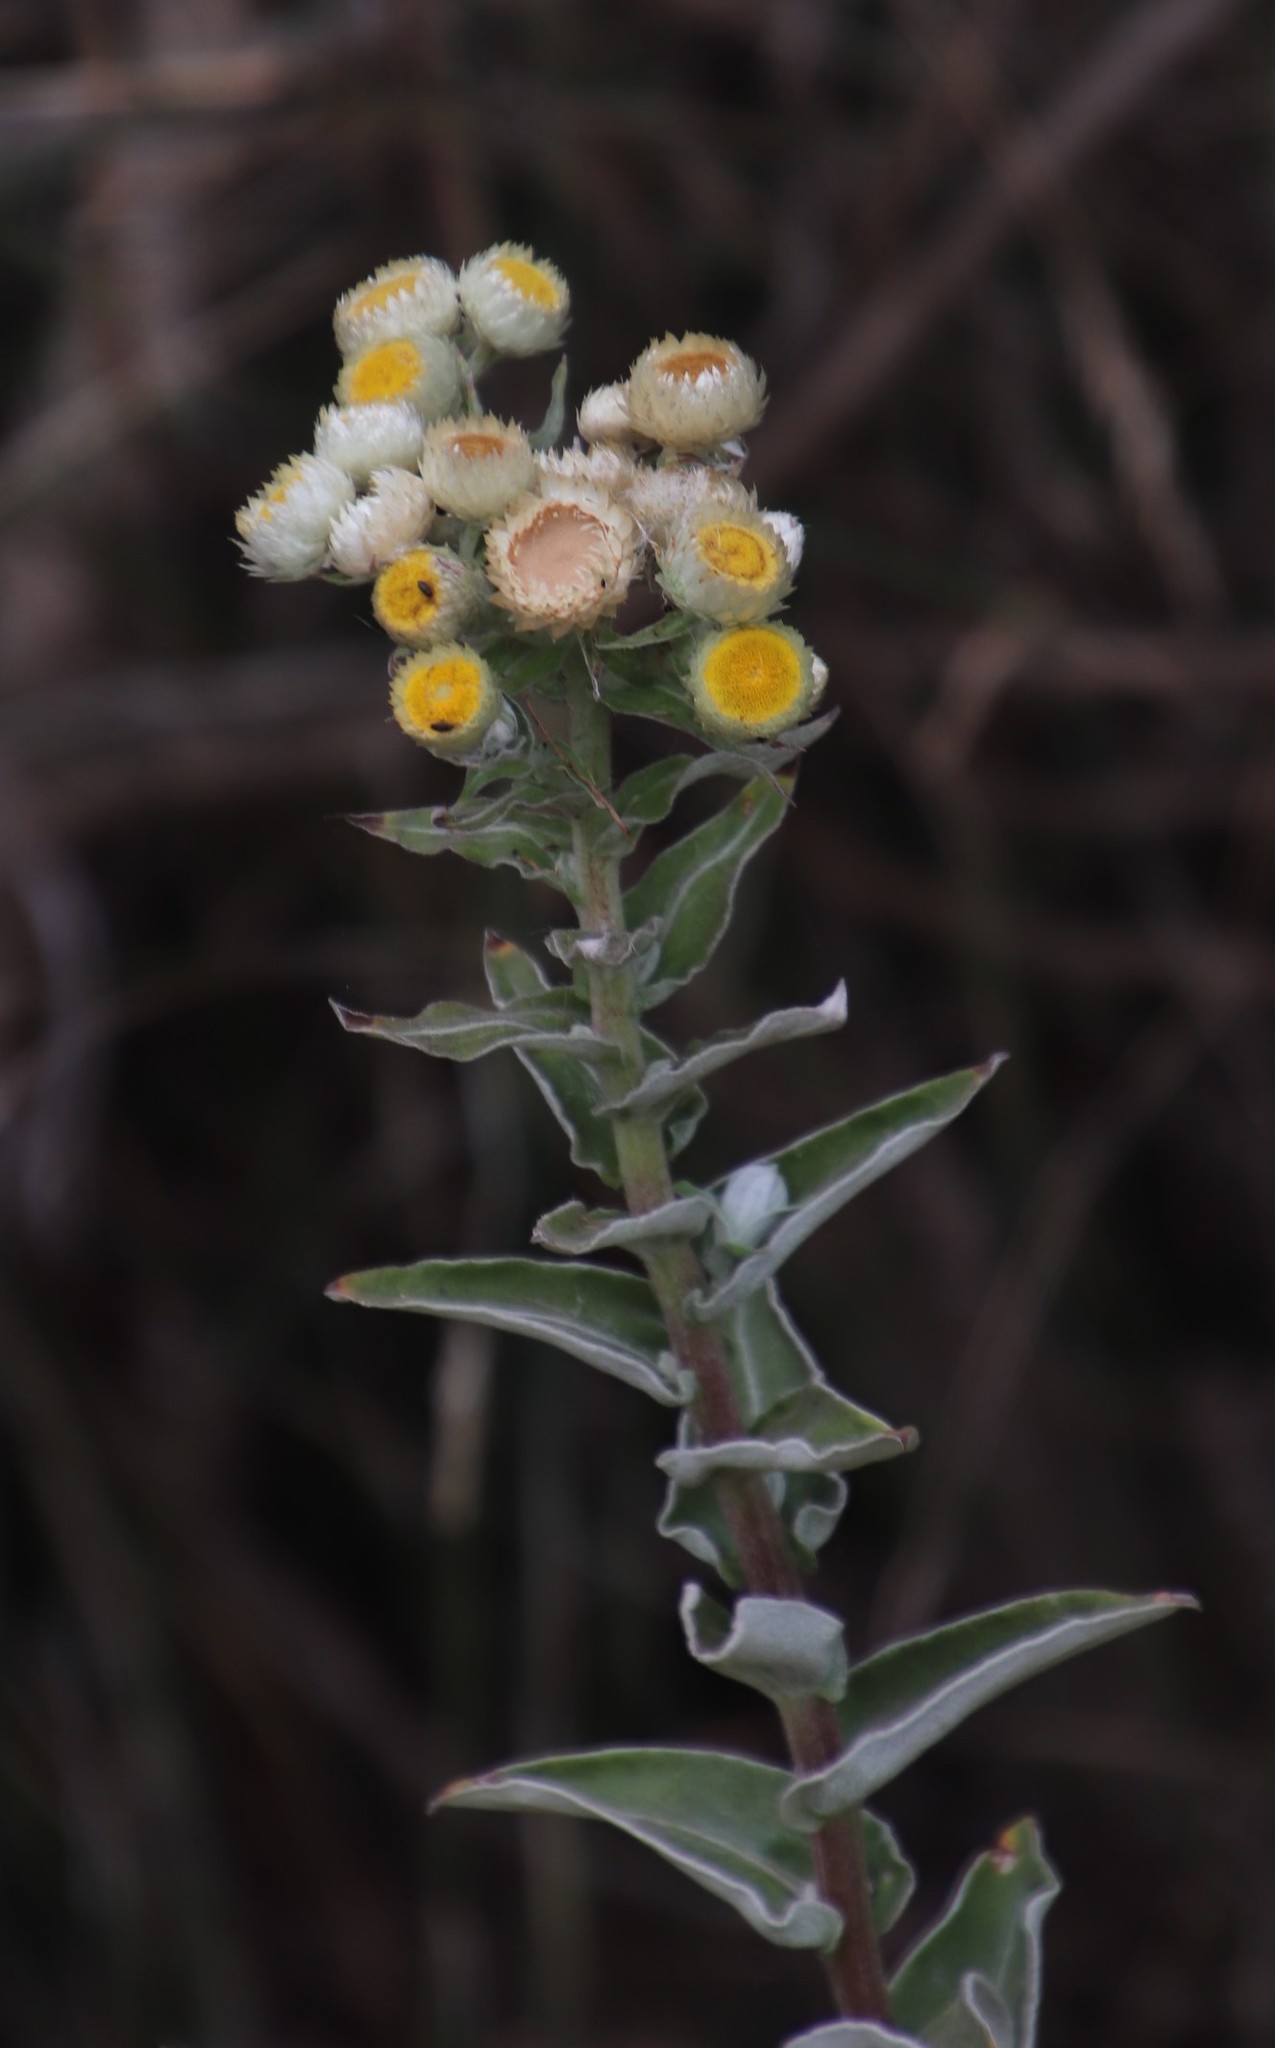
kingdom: Plantae
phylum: Tracheophyta
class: Magnoliopsida
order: Asterales
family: Asteraceae
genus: Helichrysum
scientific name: Helichrysum foetidum
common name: Stinking everlasting
